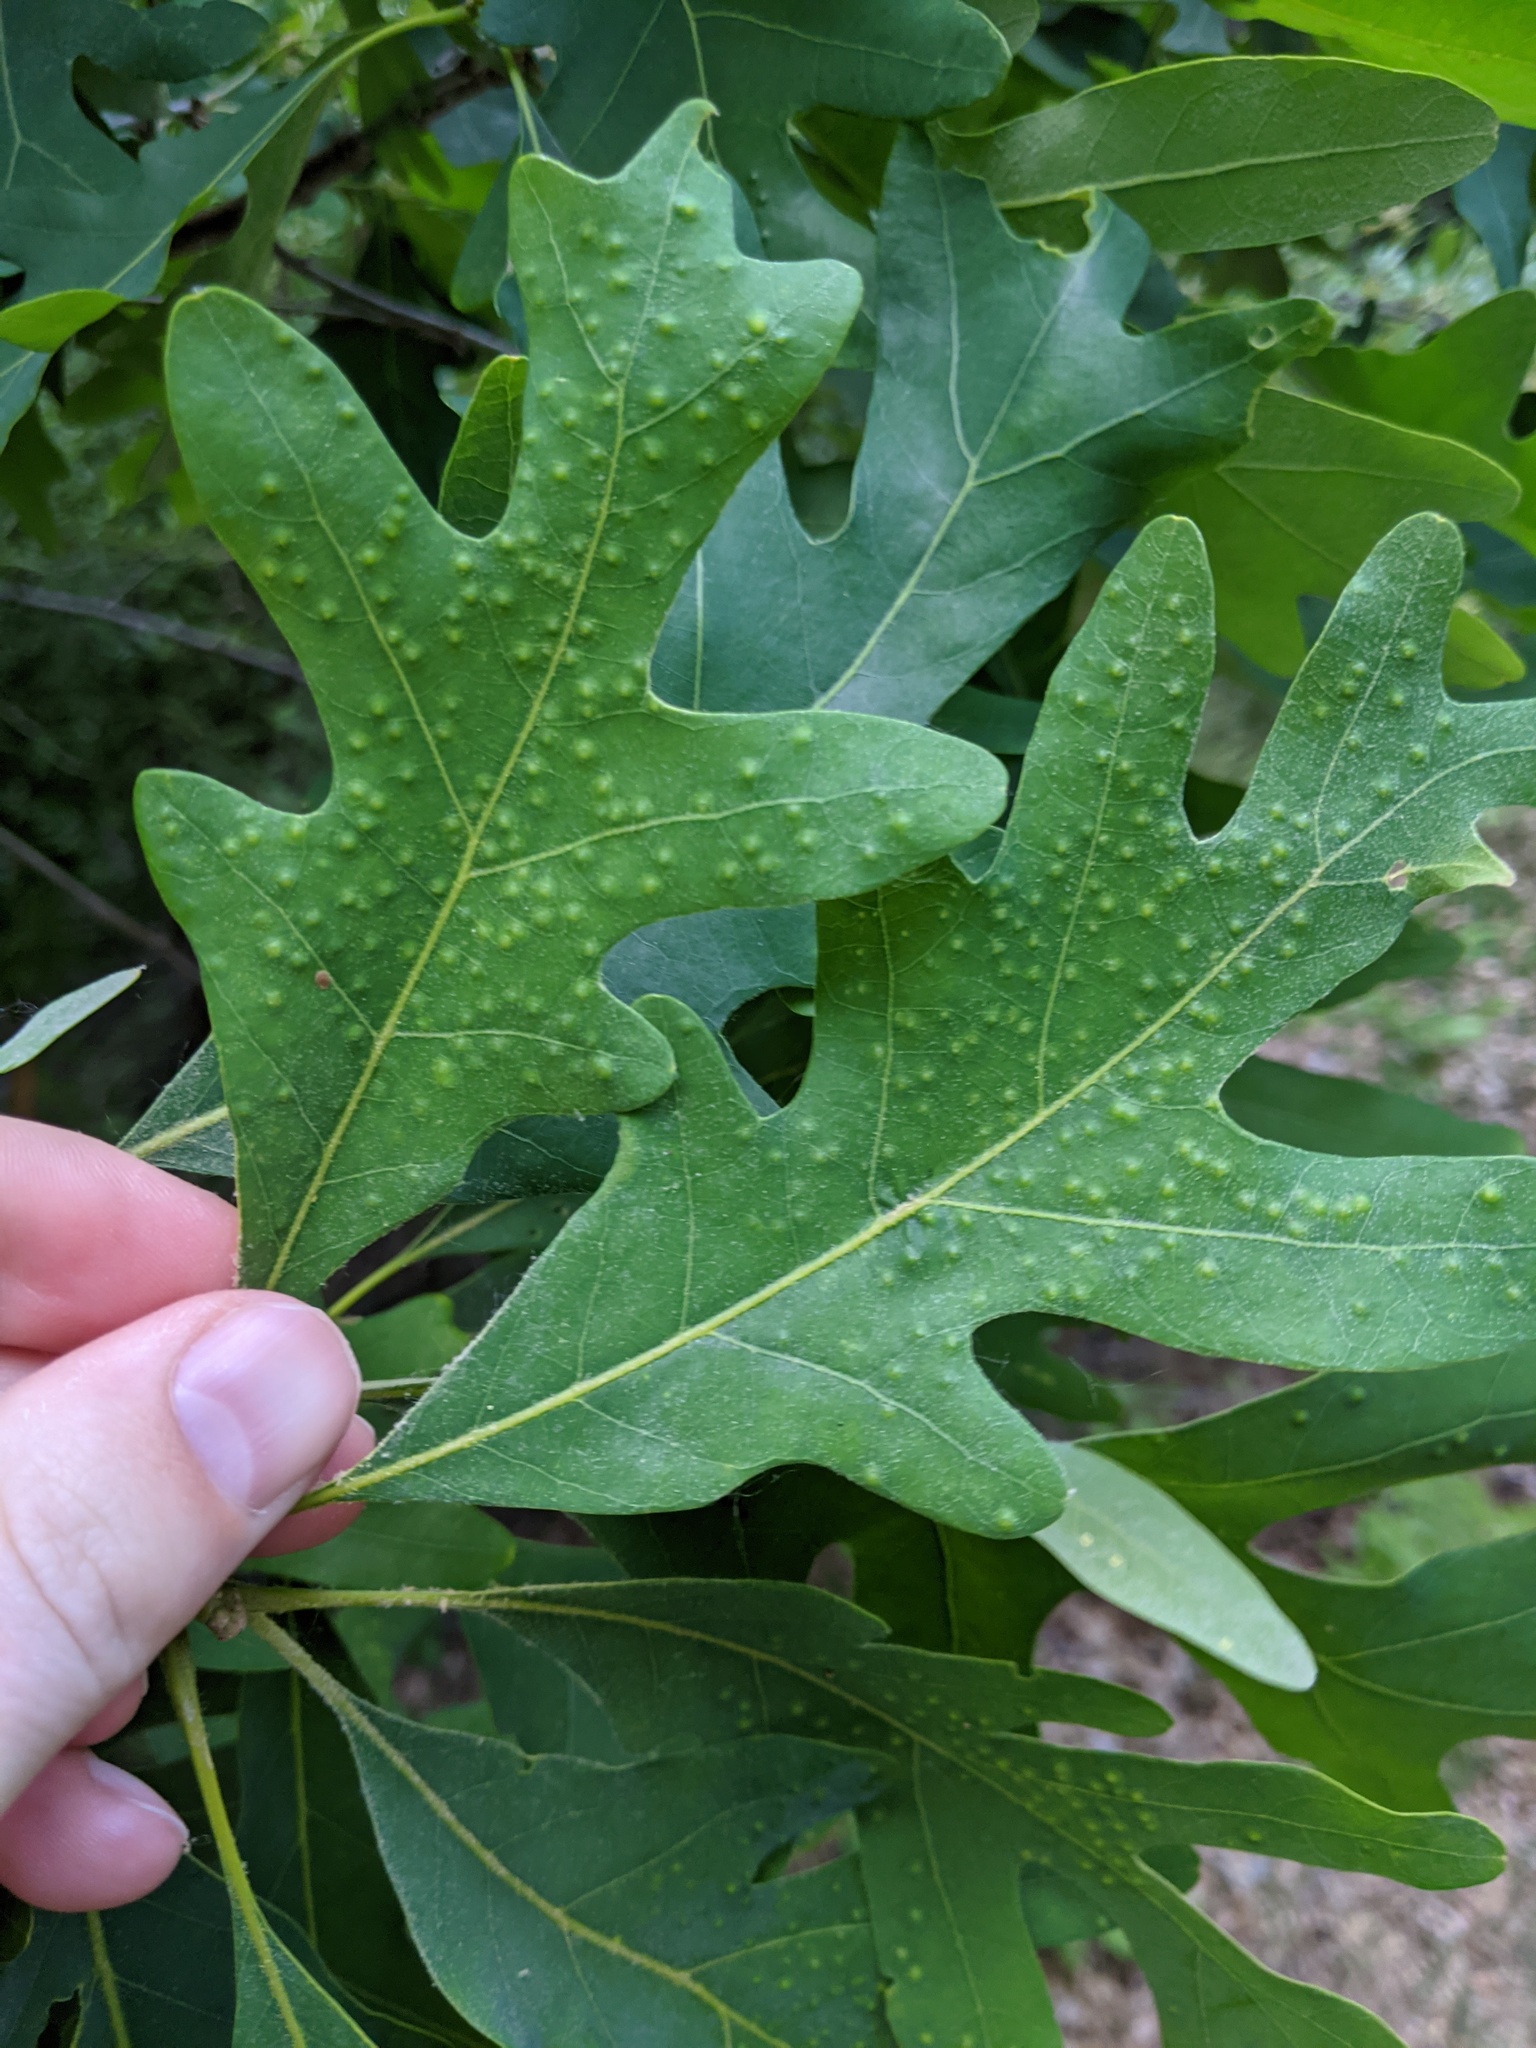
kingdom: Animalia
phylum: Arthropoda
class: Insecta
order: Hymenoptera
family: Cynipidae
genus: Neuroterus
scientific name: Neuroterus
